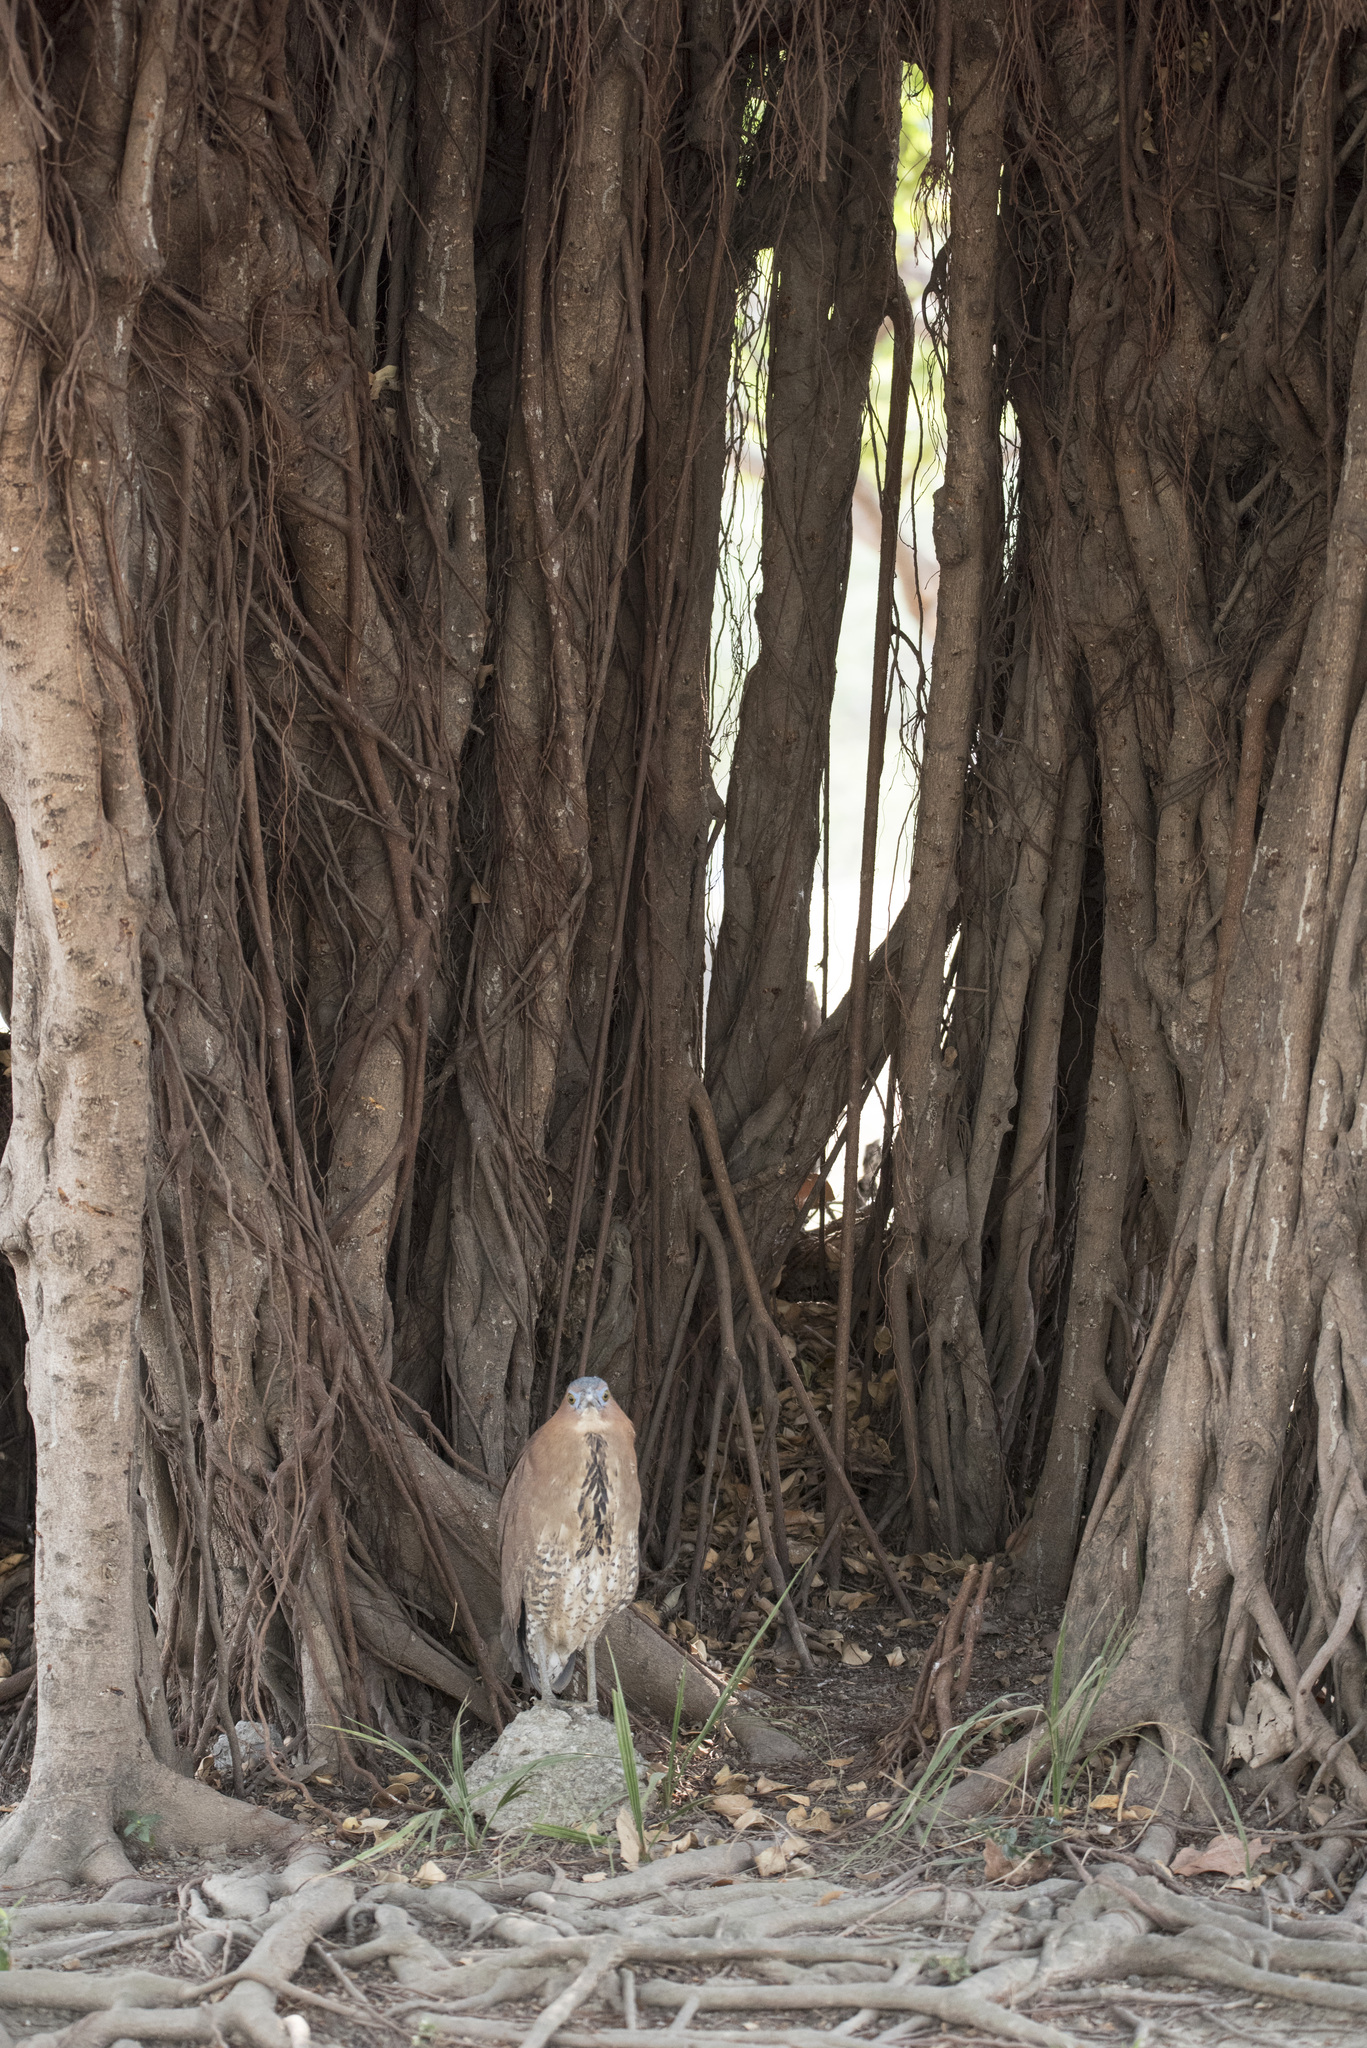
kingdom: Animalia
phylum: Chordata
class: Aves
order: Pelecaniformes
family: Ardeidae
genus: Gorsachius
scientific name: Gorsachius melanolophus
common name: Malayan night heron
